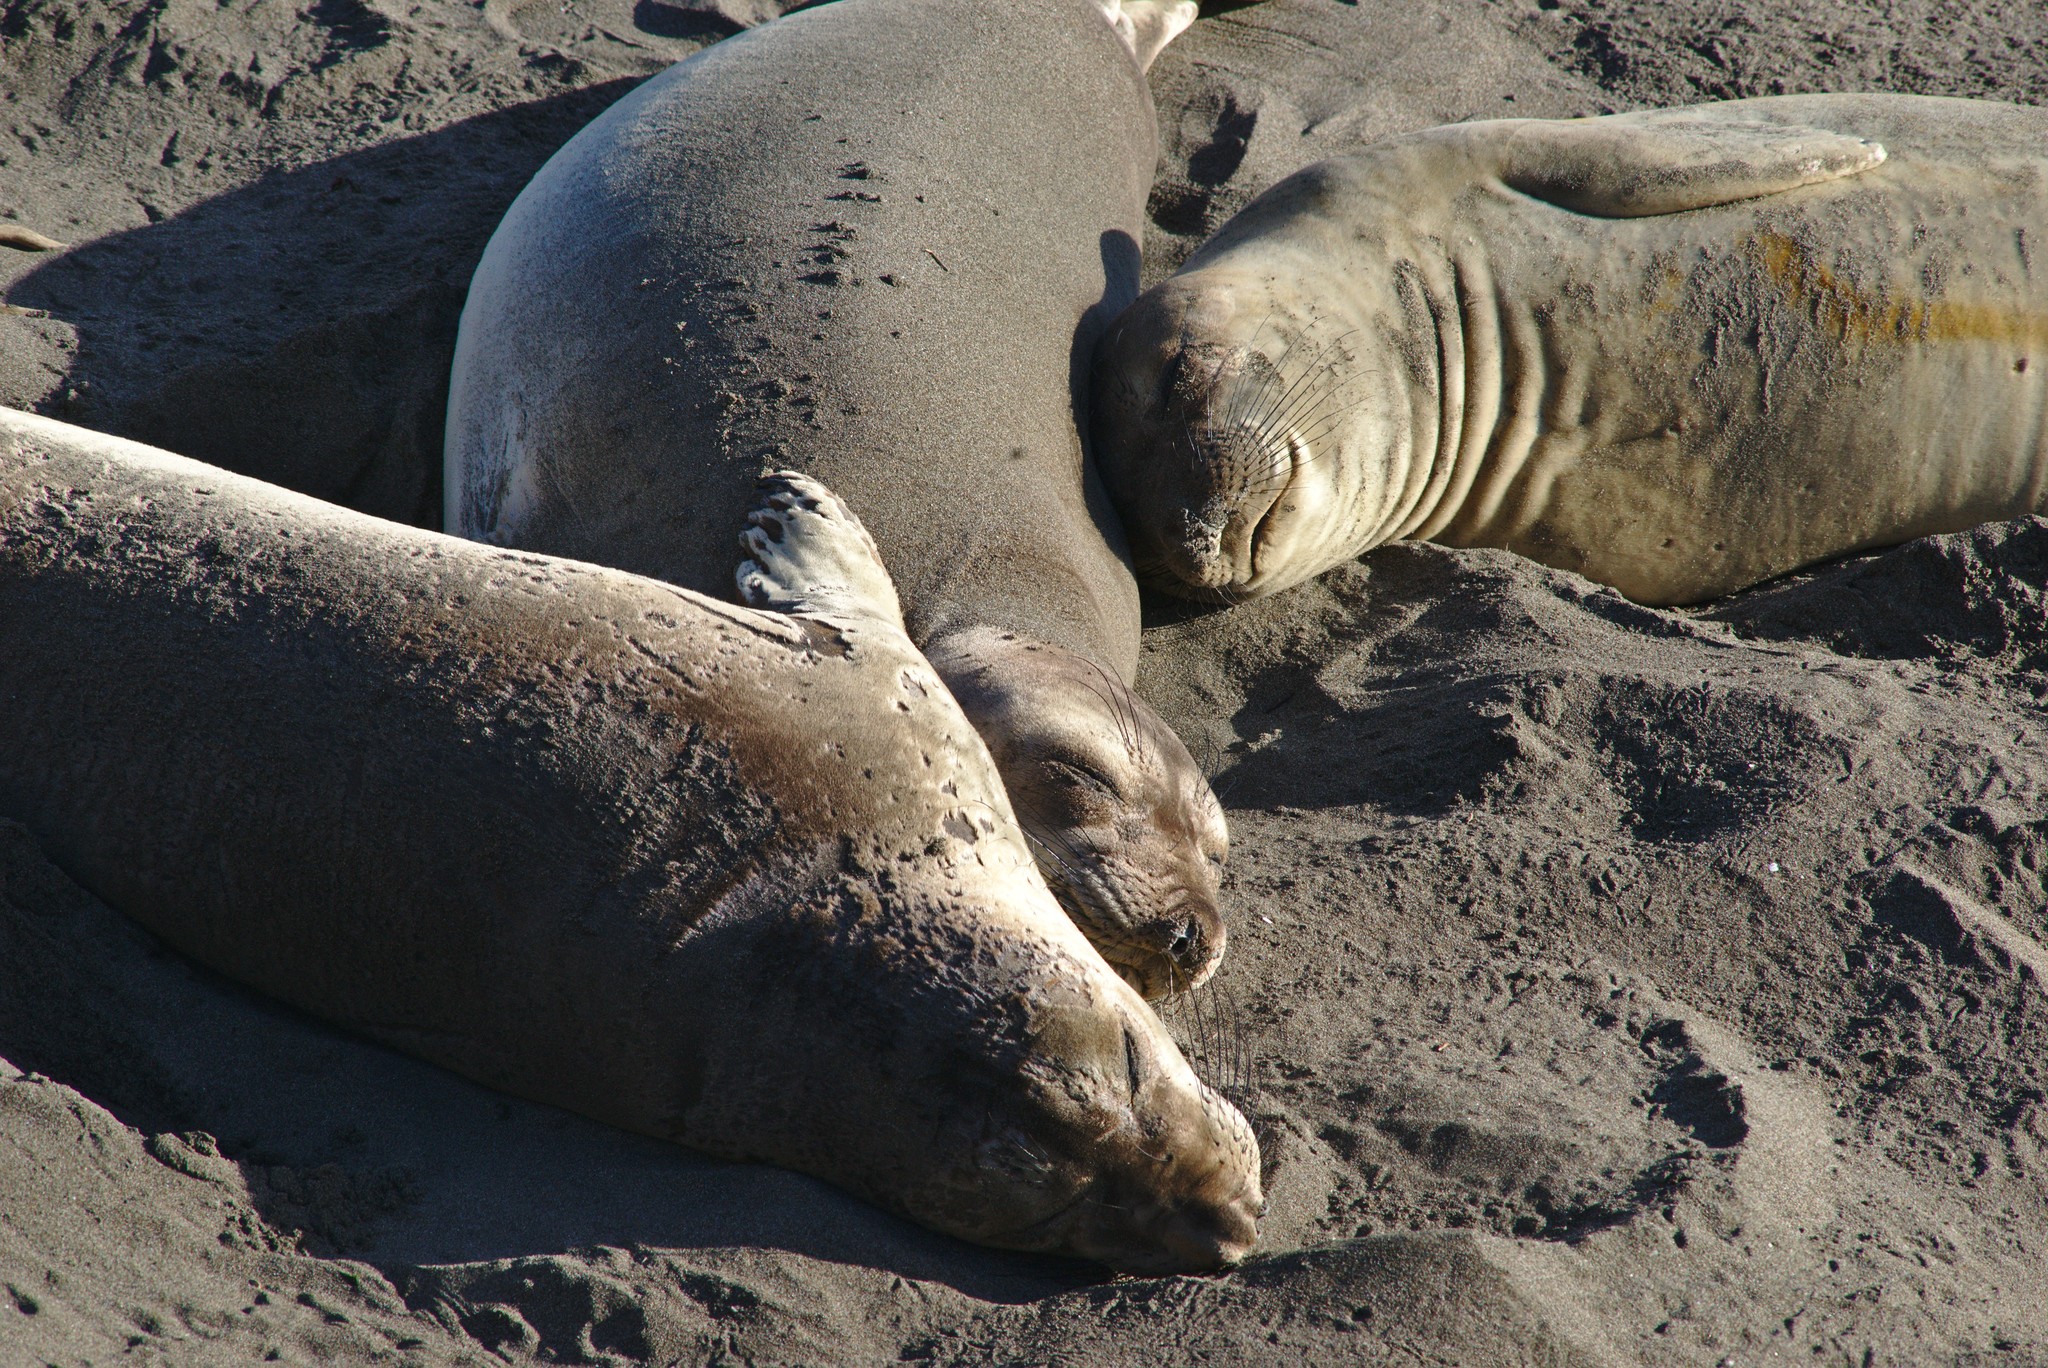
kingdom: Animalia
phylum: Chordata
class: Mammalia
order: Carnivora
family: Phocidae
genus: Mirounga
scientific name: Mirounga angustirostris
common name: Northern elephant seal
